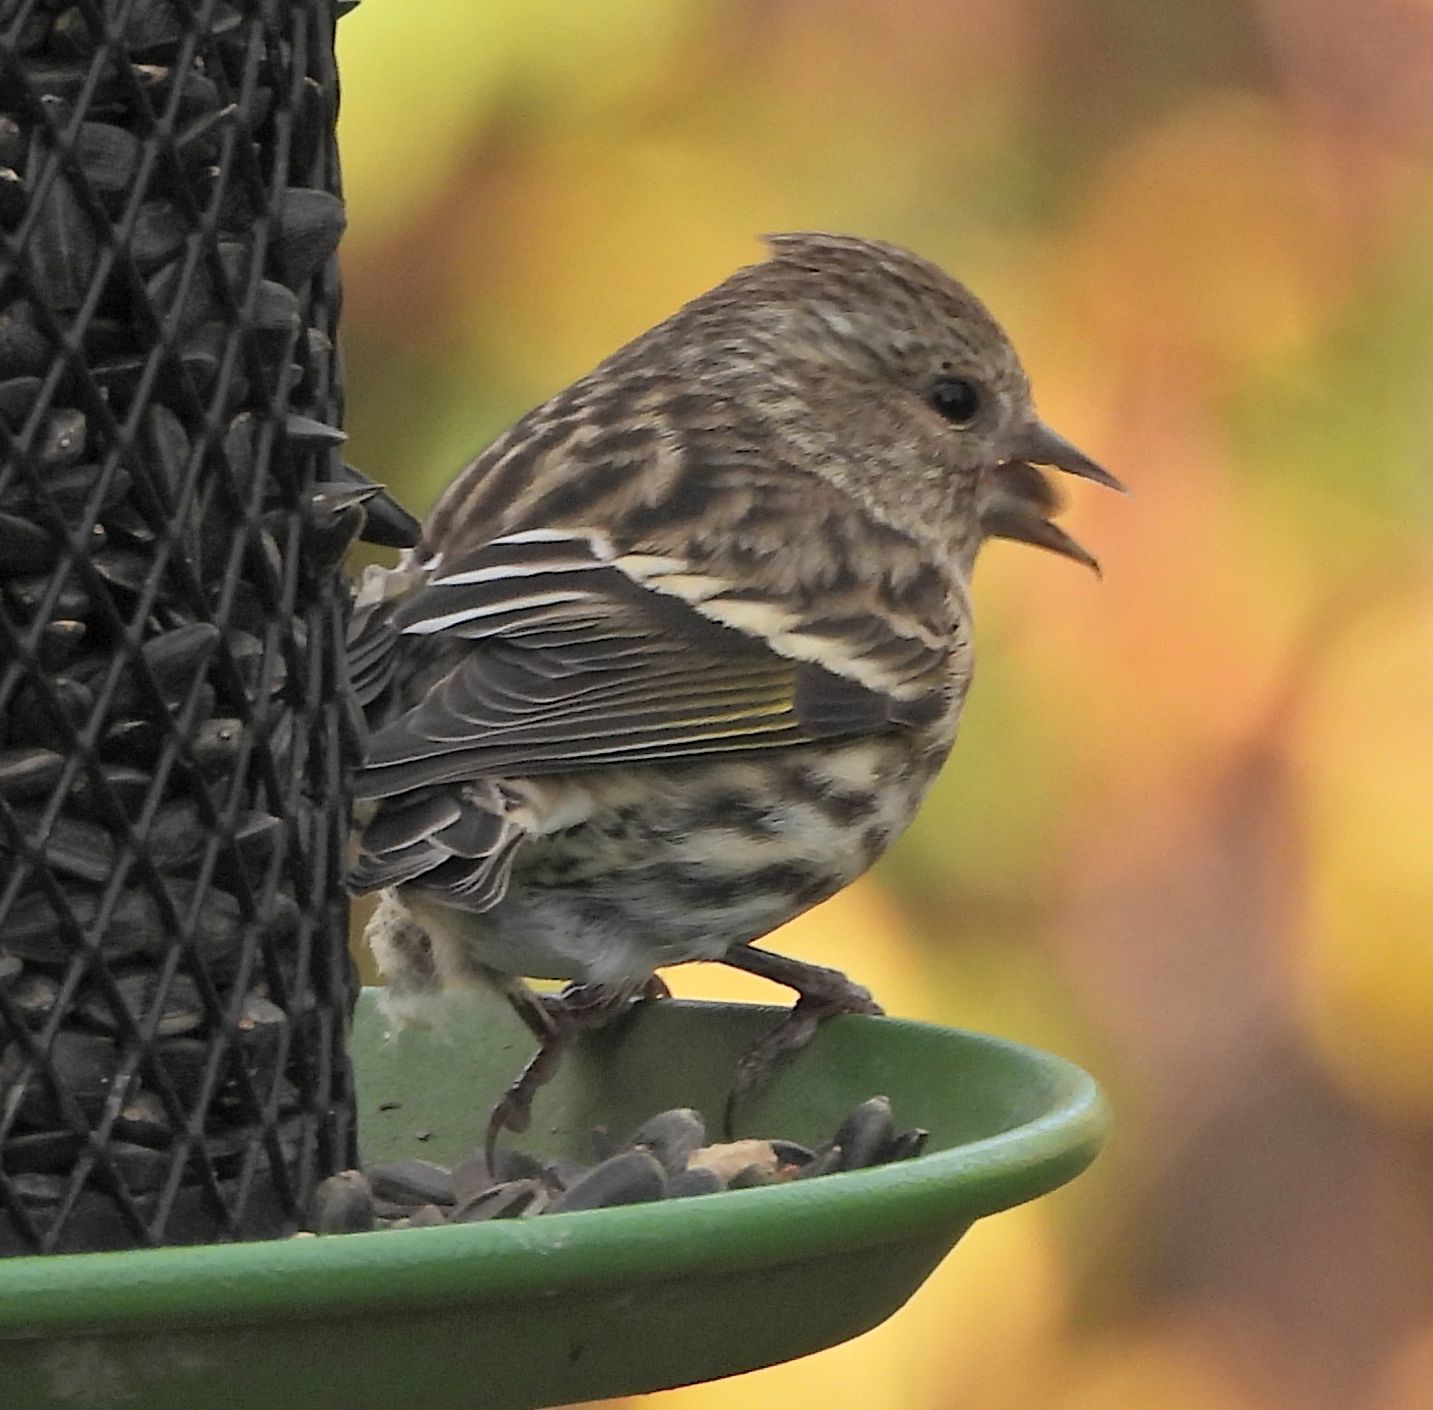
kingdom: Animalia
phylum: Chordata
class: Aves
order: Passeriformes
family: Fringillidae
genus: Spinus
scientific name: Spinus pinus
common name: Pine siskin
